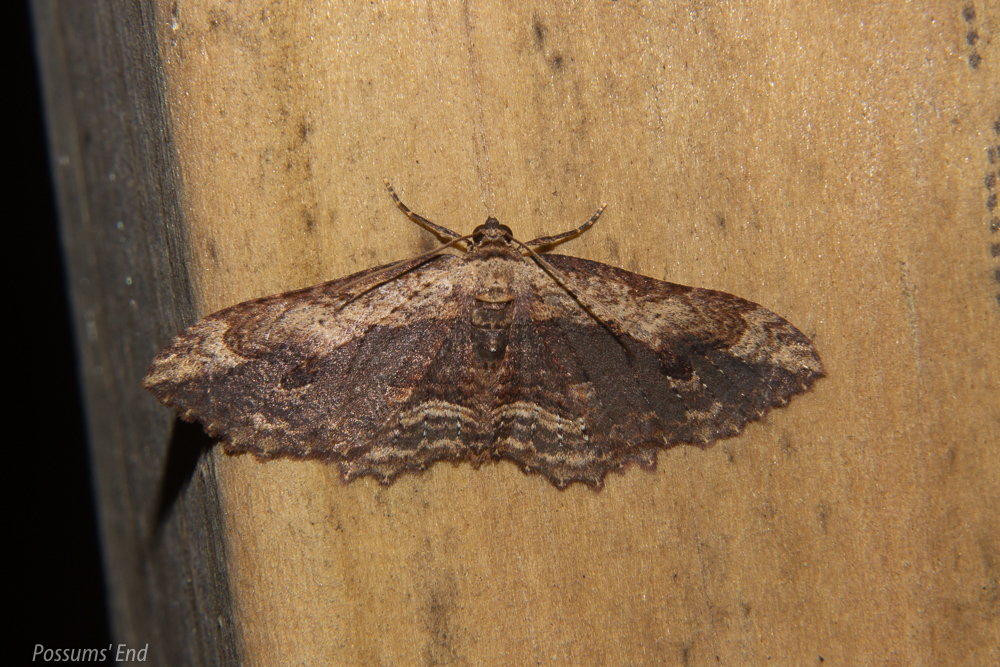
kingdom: Animalia
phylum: Arthropoda
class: Insecta
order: Lepidoptera
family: Geometridae
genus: Austrocidaria
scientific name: Austrocidaria bipartita
